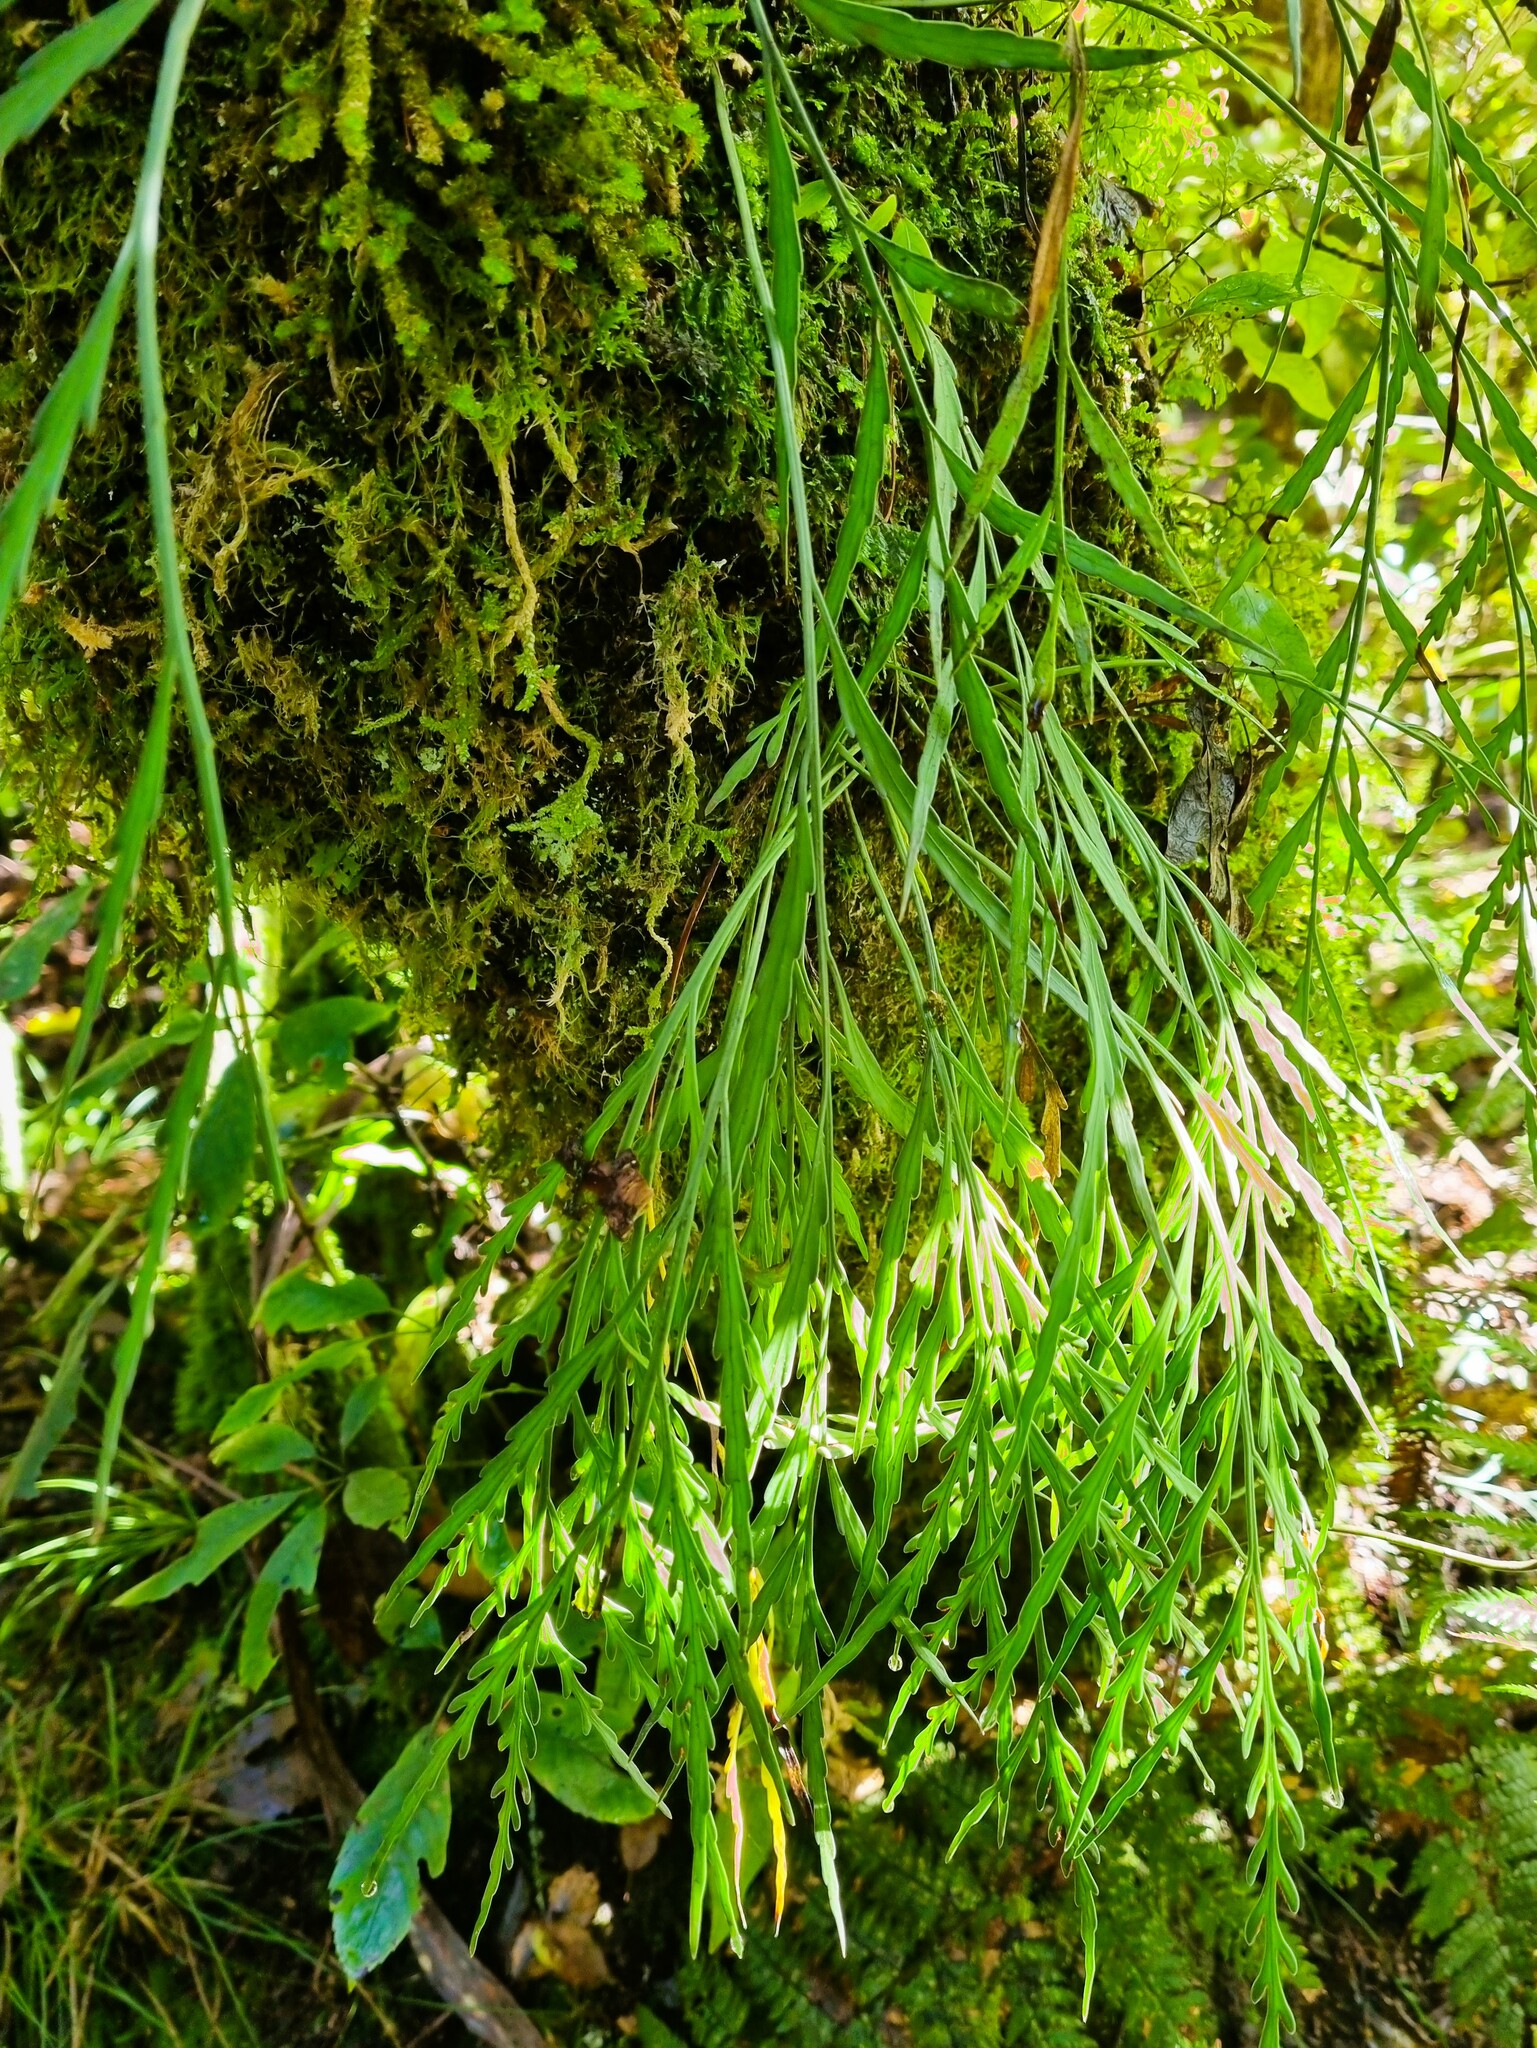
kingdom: Plantae
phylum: Tracheophyta
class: Polypodiopsida
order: Polypodiales
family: Aspleniaceae
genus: Asplenium
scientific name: Asplenium flaccidum
